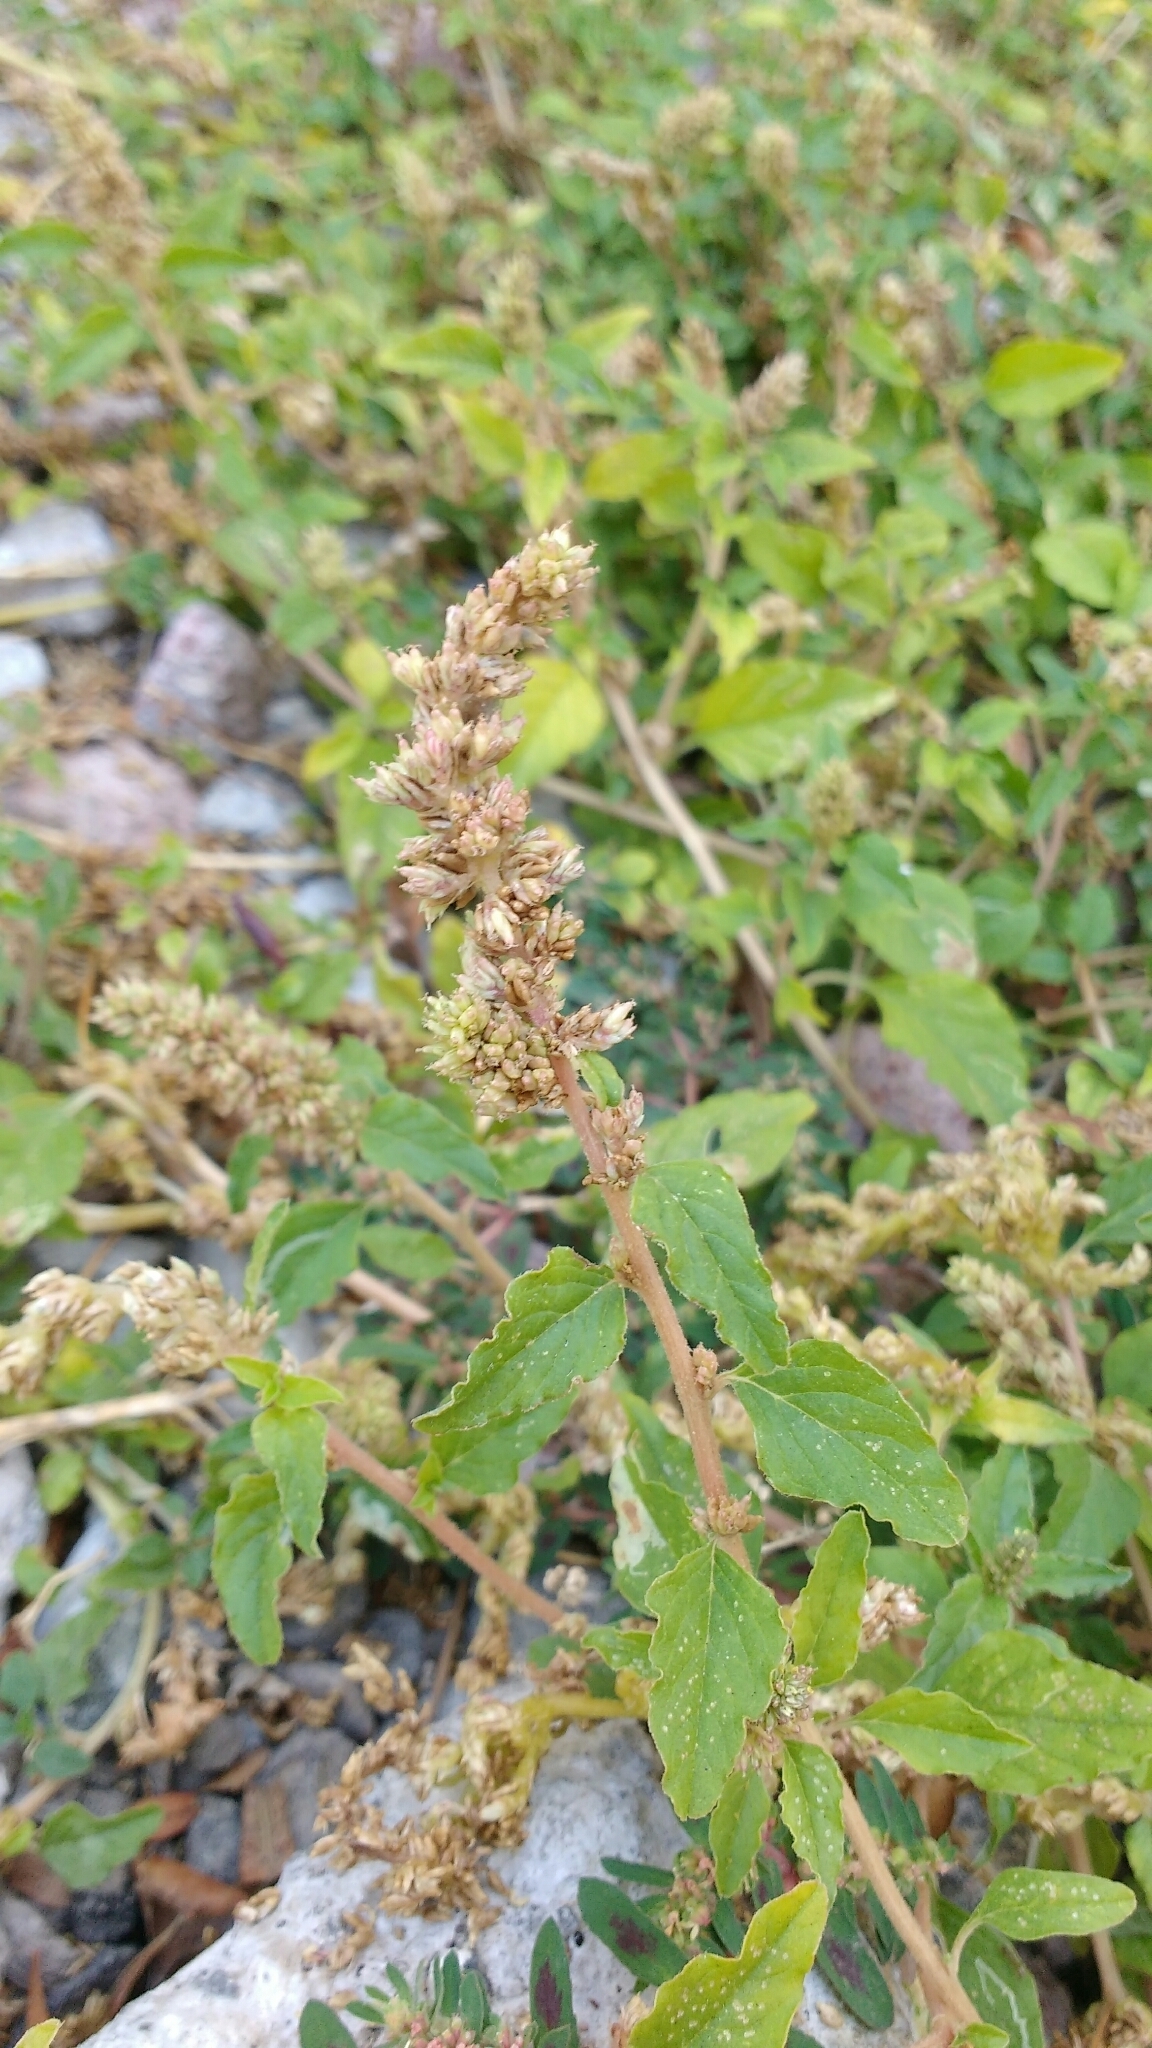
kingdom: Plantae
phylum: Tracheophyta
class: Magnoliopsida
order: Caryophyllales
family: Amaranthaceae
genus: Amaranthus
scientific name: Amaranthus deflexus
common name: Perennial pigweed
